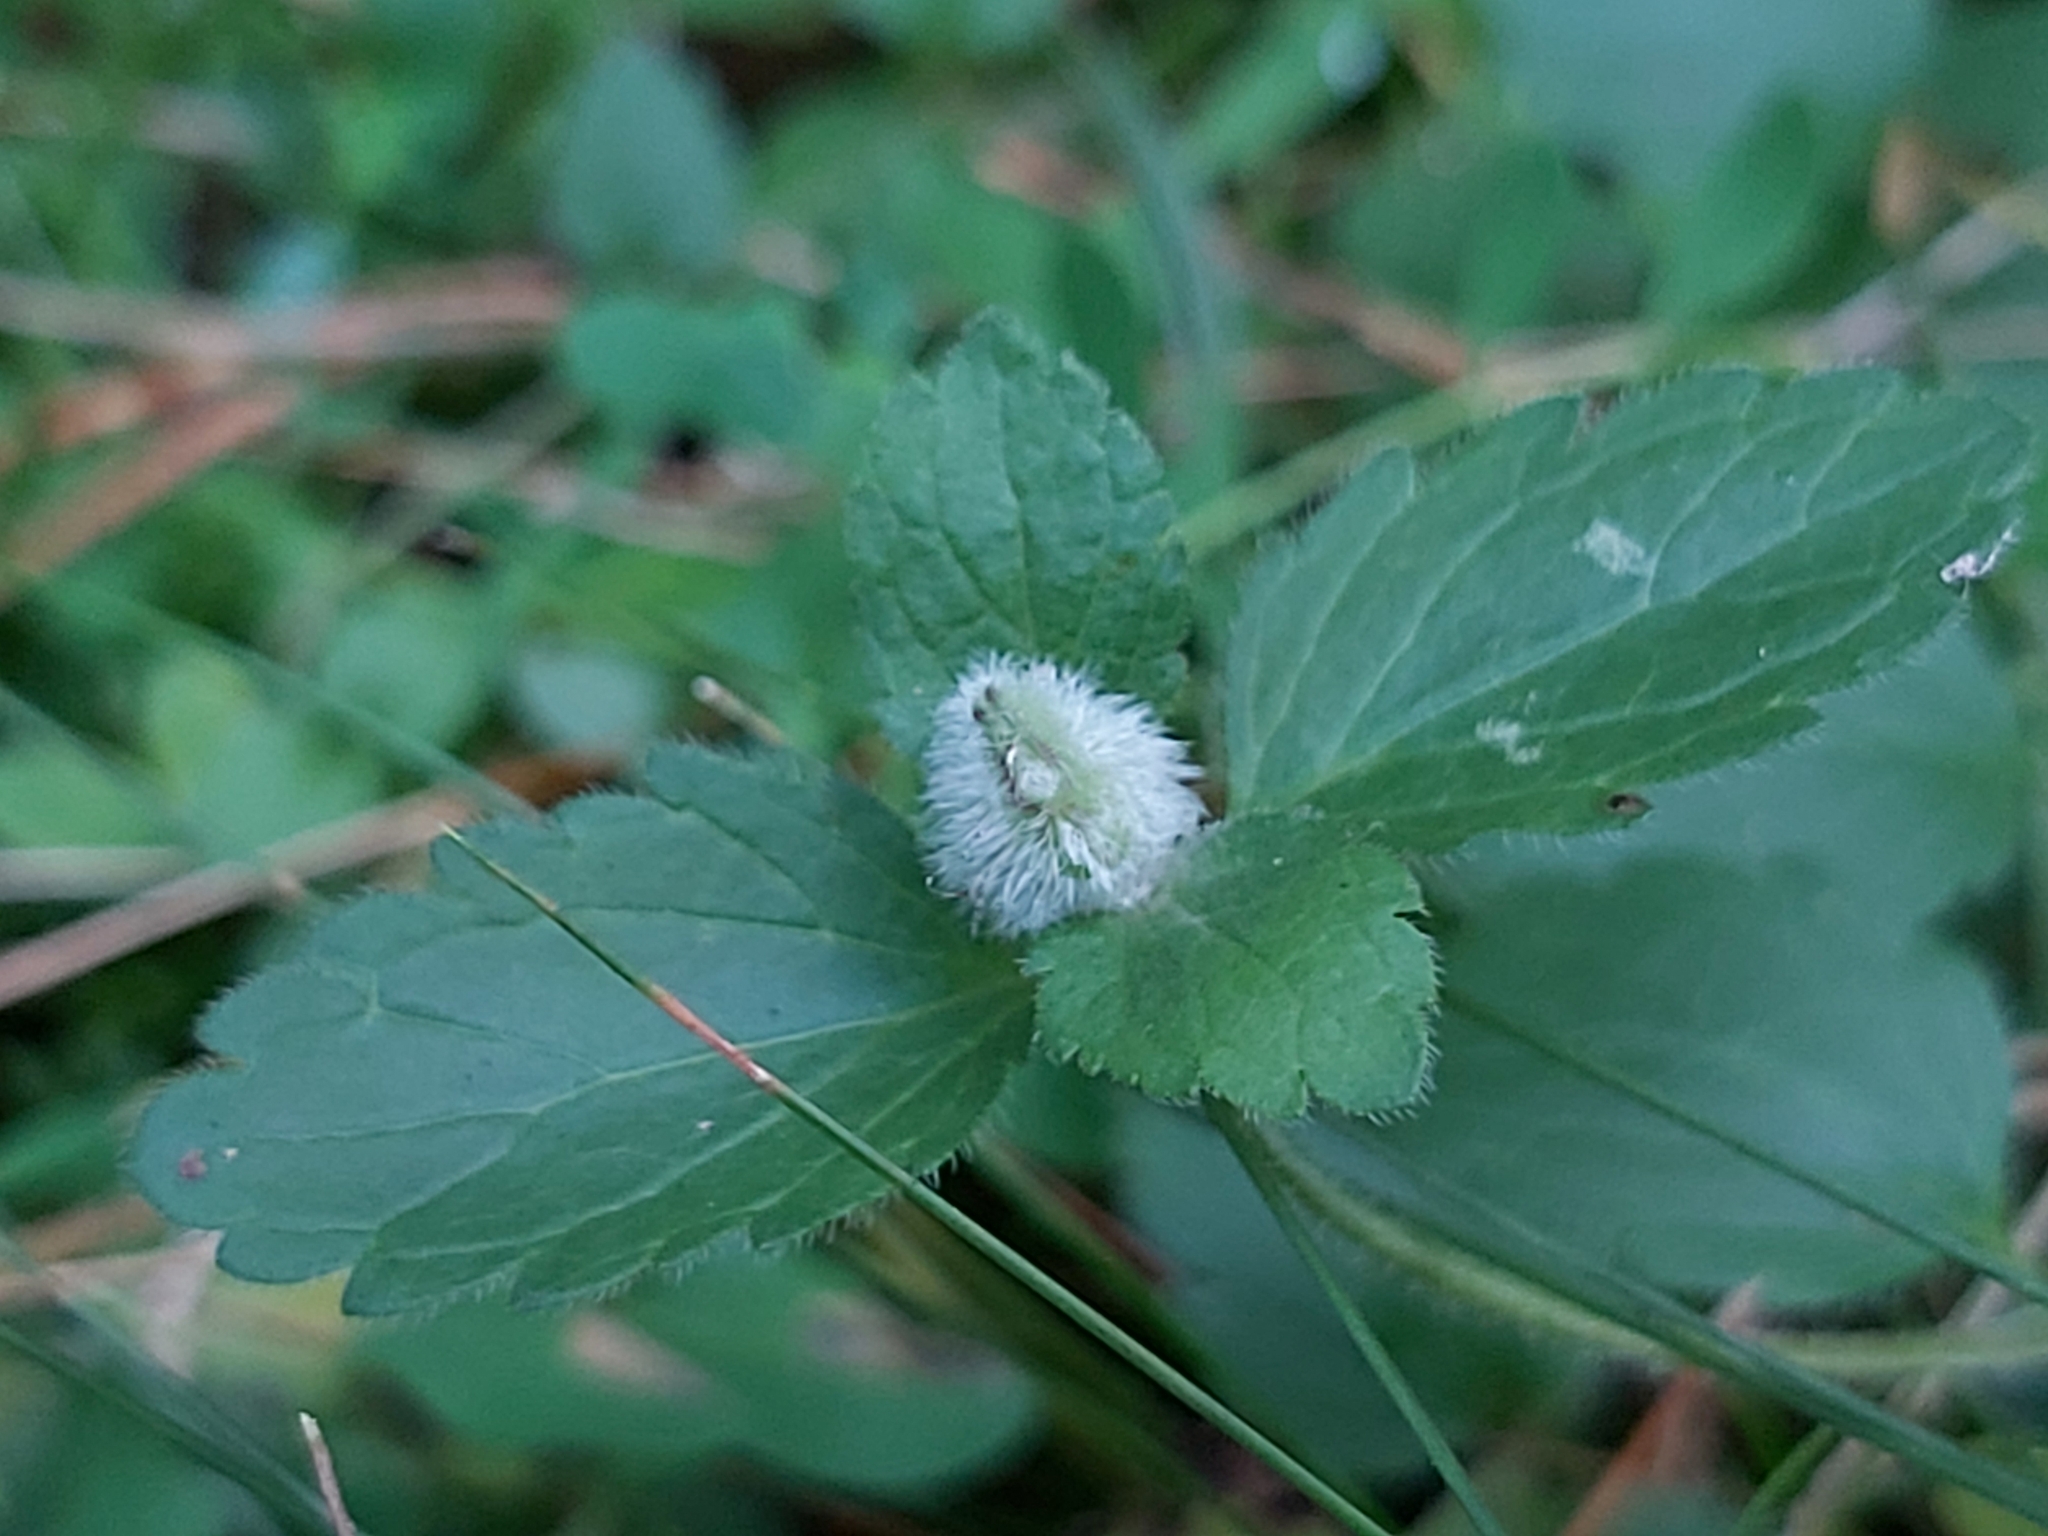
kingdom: Animalia
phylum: Arthropoda
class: Insecta
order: Diptera
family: Cecidomyiidae
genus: Jaapiella
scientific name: Jaapiella veronicae
